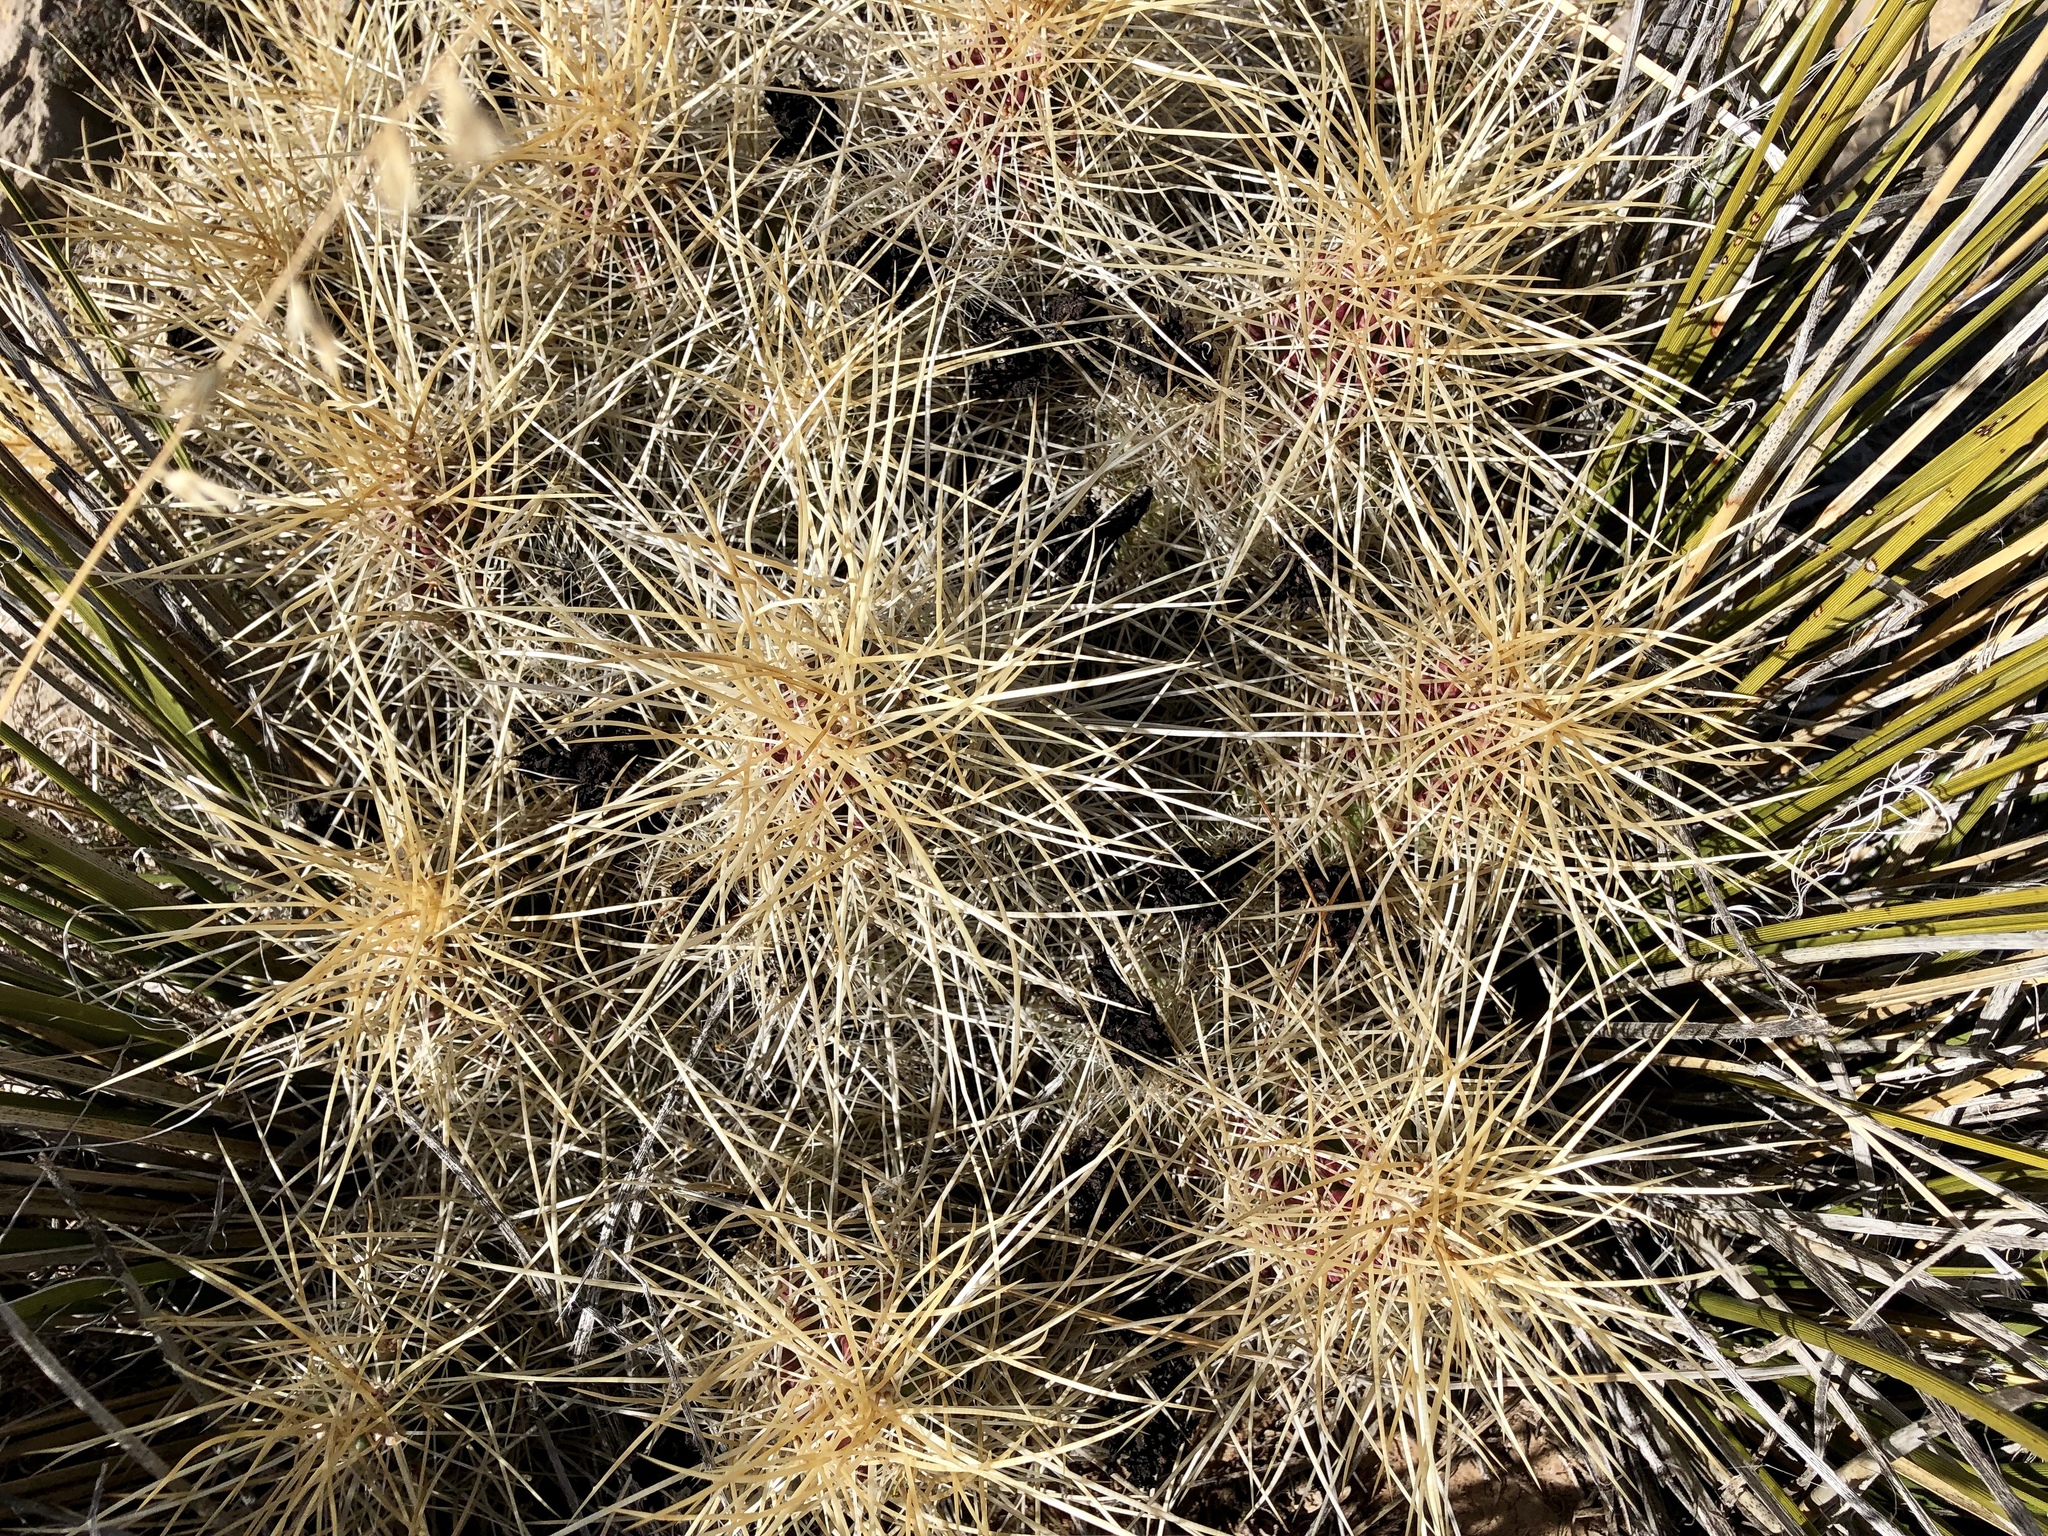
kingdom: Plantae
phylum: Tracheophyta
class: Magnoliopsida
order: Caryophyllales
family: Cactaceae
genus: Echinocereus
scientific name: Echinocereus stramineus
